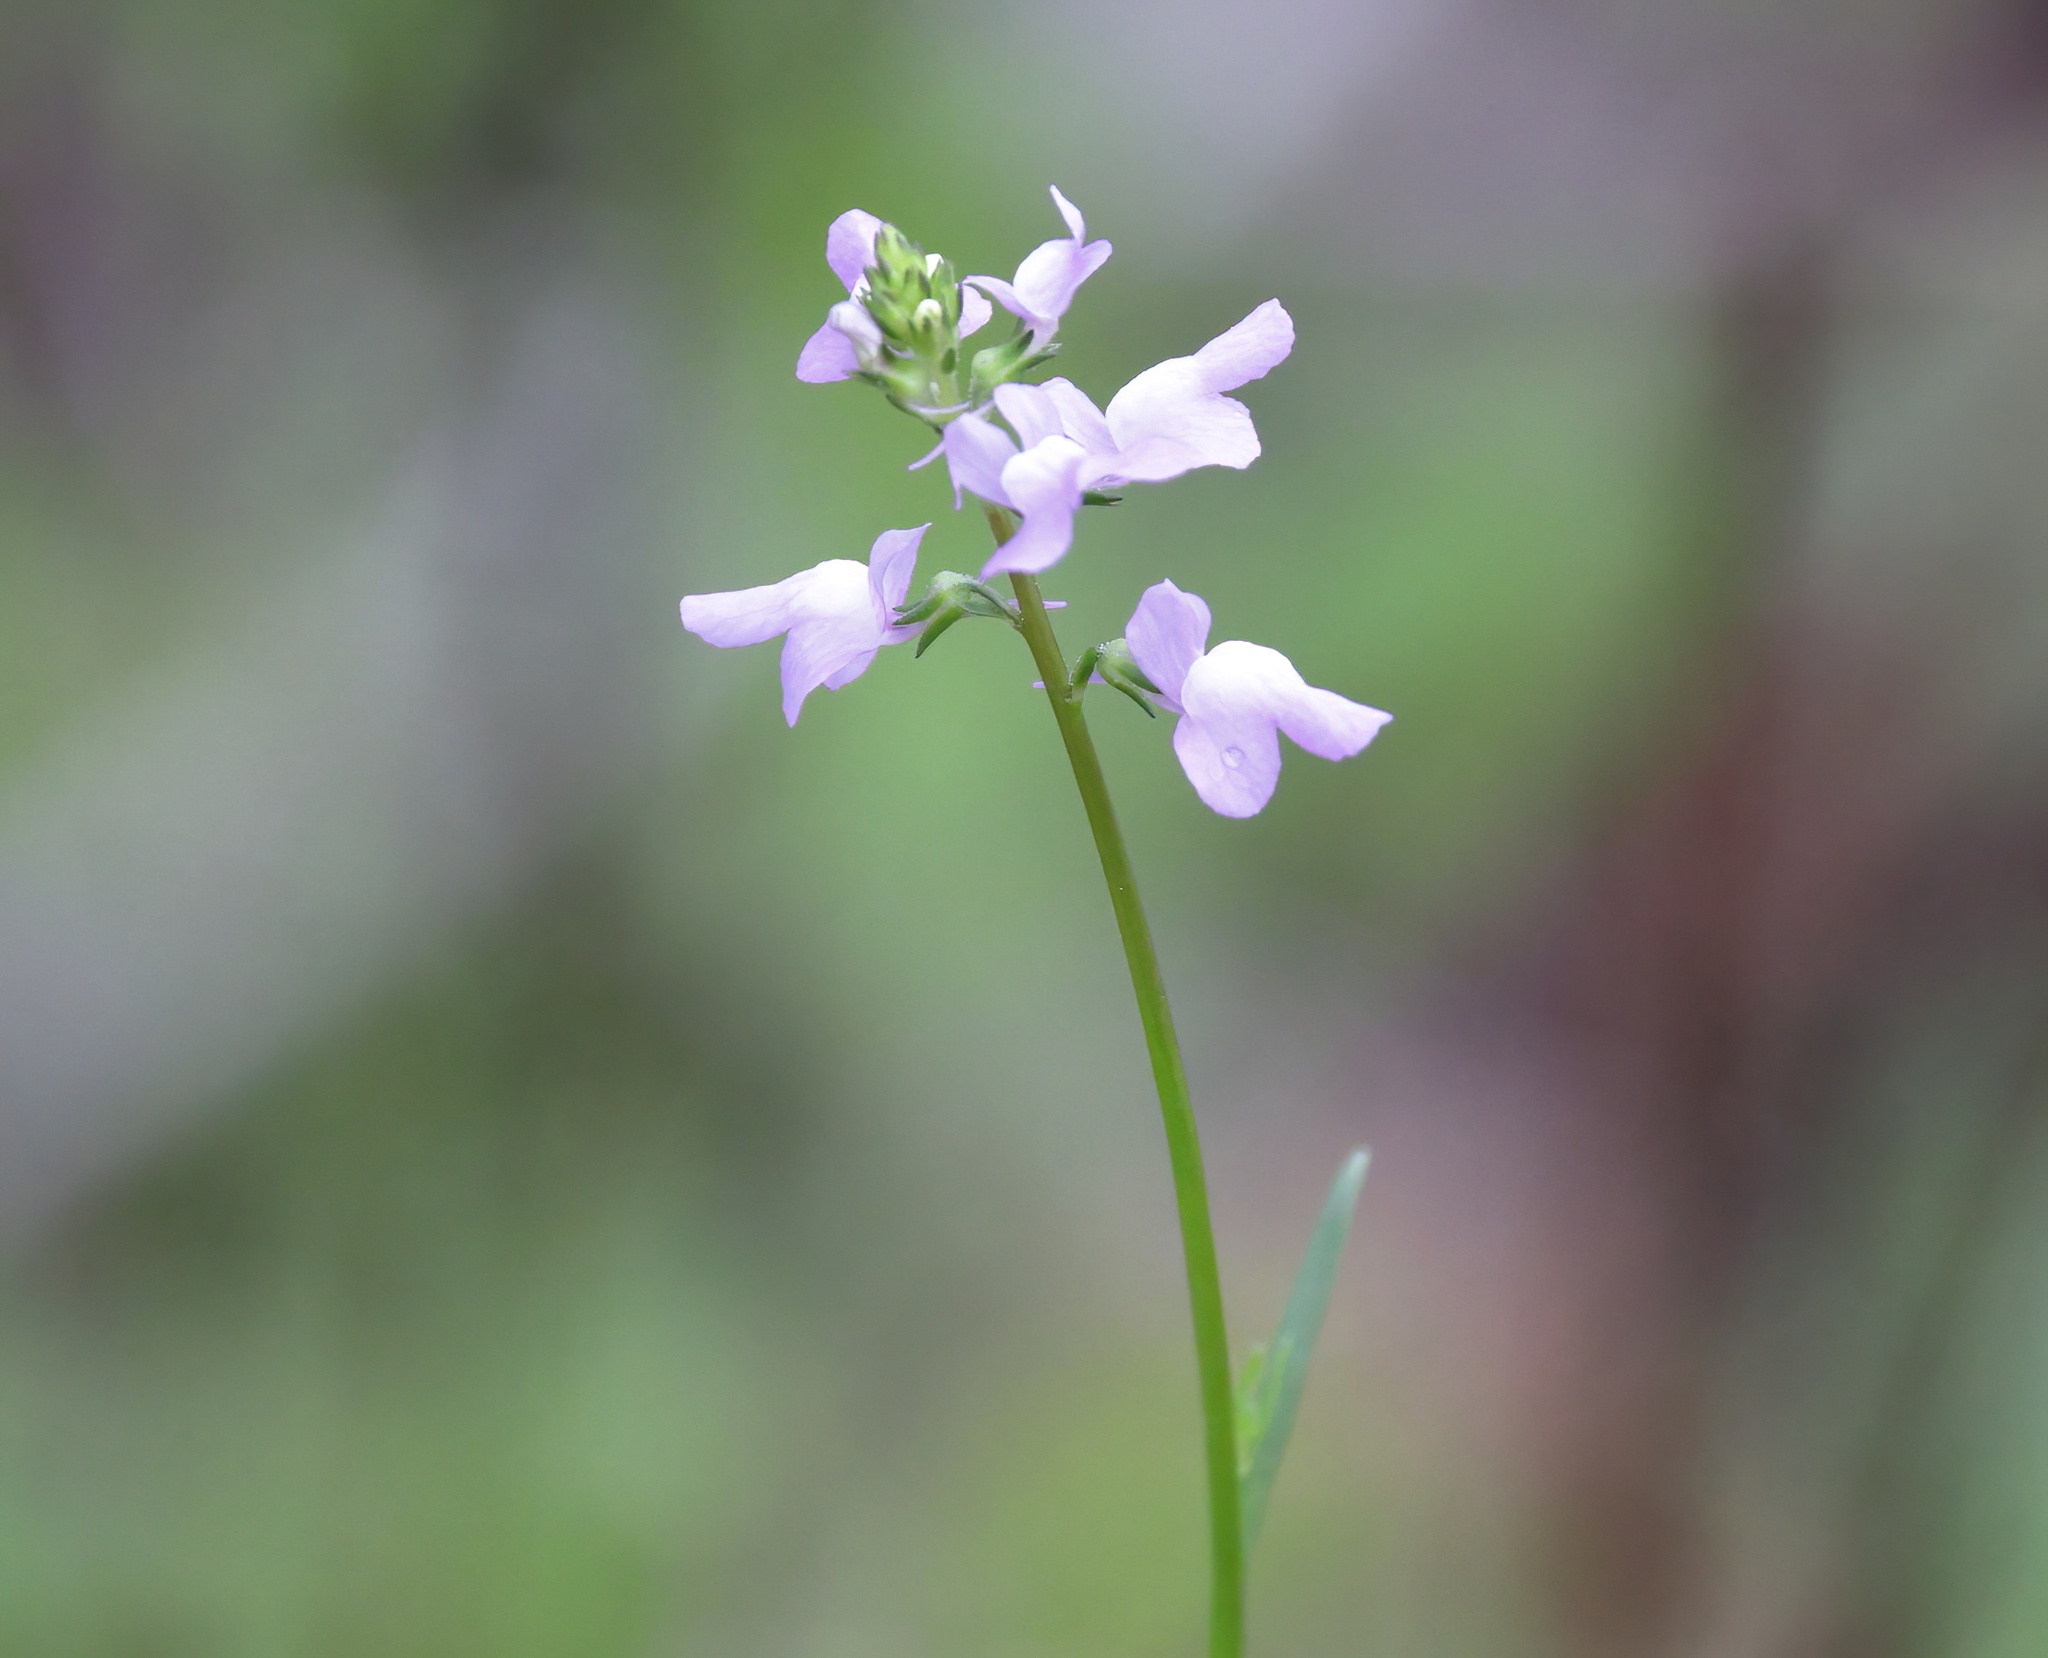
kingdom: Plantae
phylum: Tracheophyta
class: Magnoliopsida
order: Lamiales
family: Plantaginaceae
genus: Nuttallanthus
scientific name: Nuttallanthus canadensis
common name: Blue toadflax
